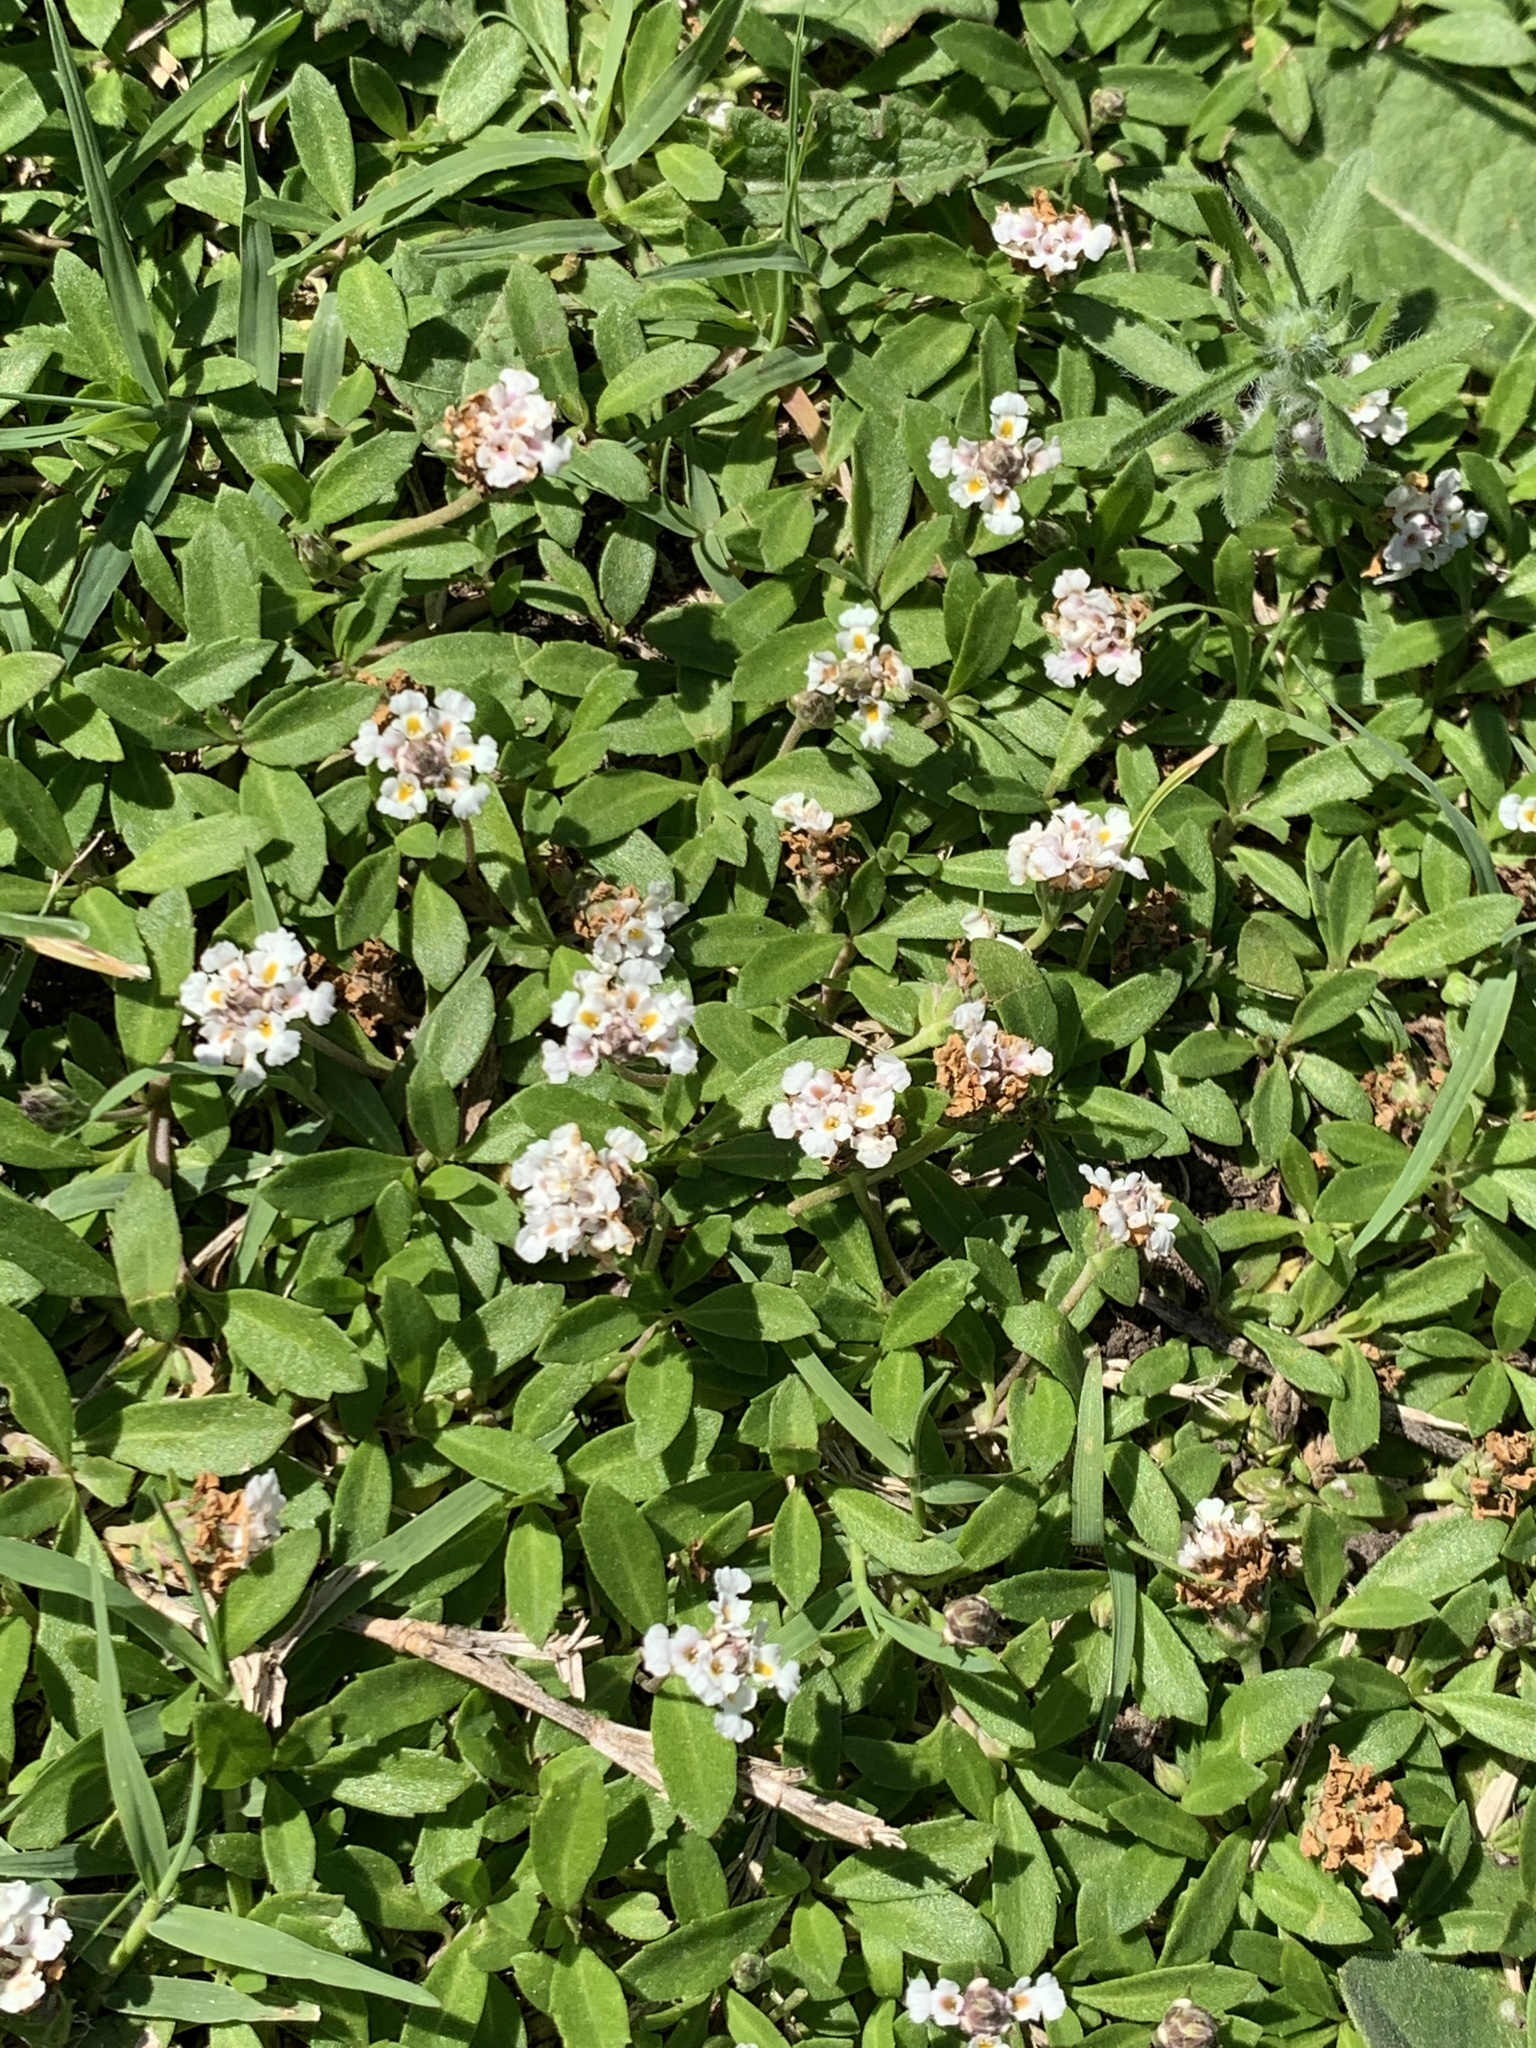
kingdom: Plantae
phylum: Tracheophyta
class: Magnoliopsida
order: Lamiales
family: Verbenaceae
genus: Phyla
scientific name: Phyla nodiflora
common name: Frogfruit
